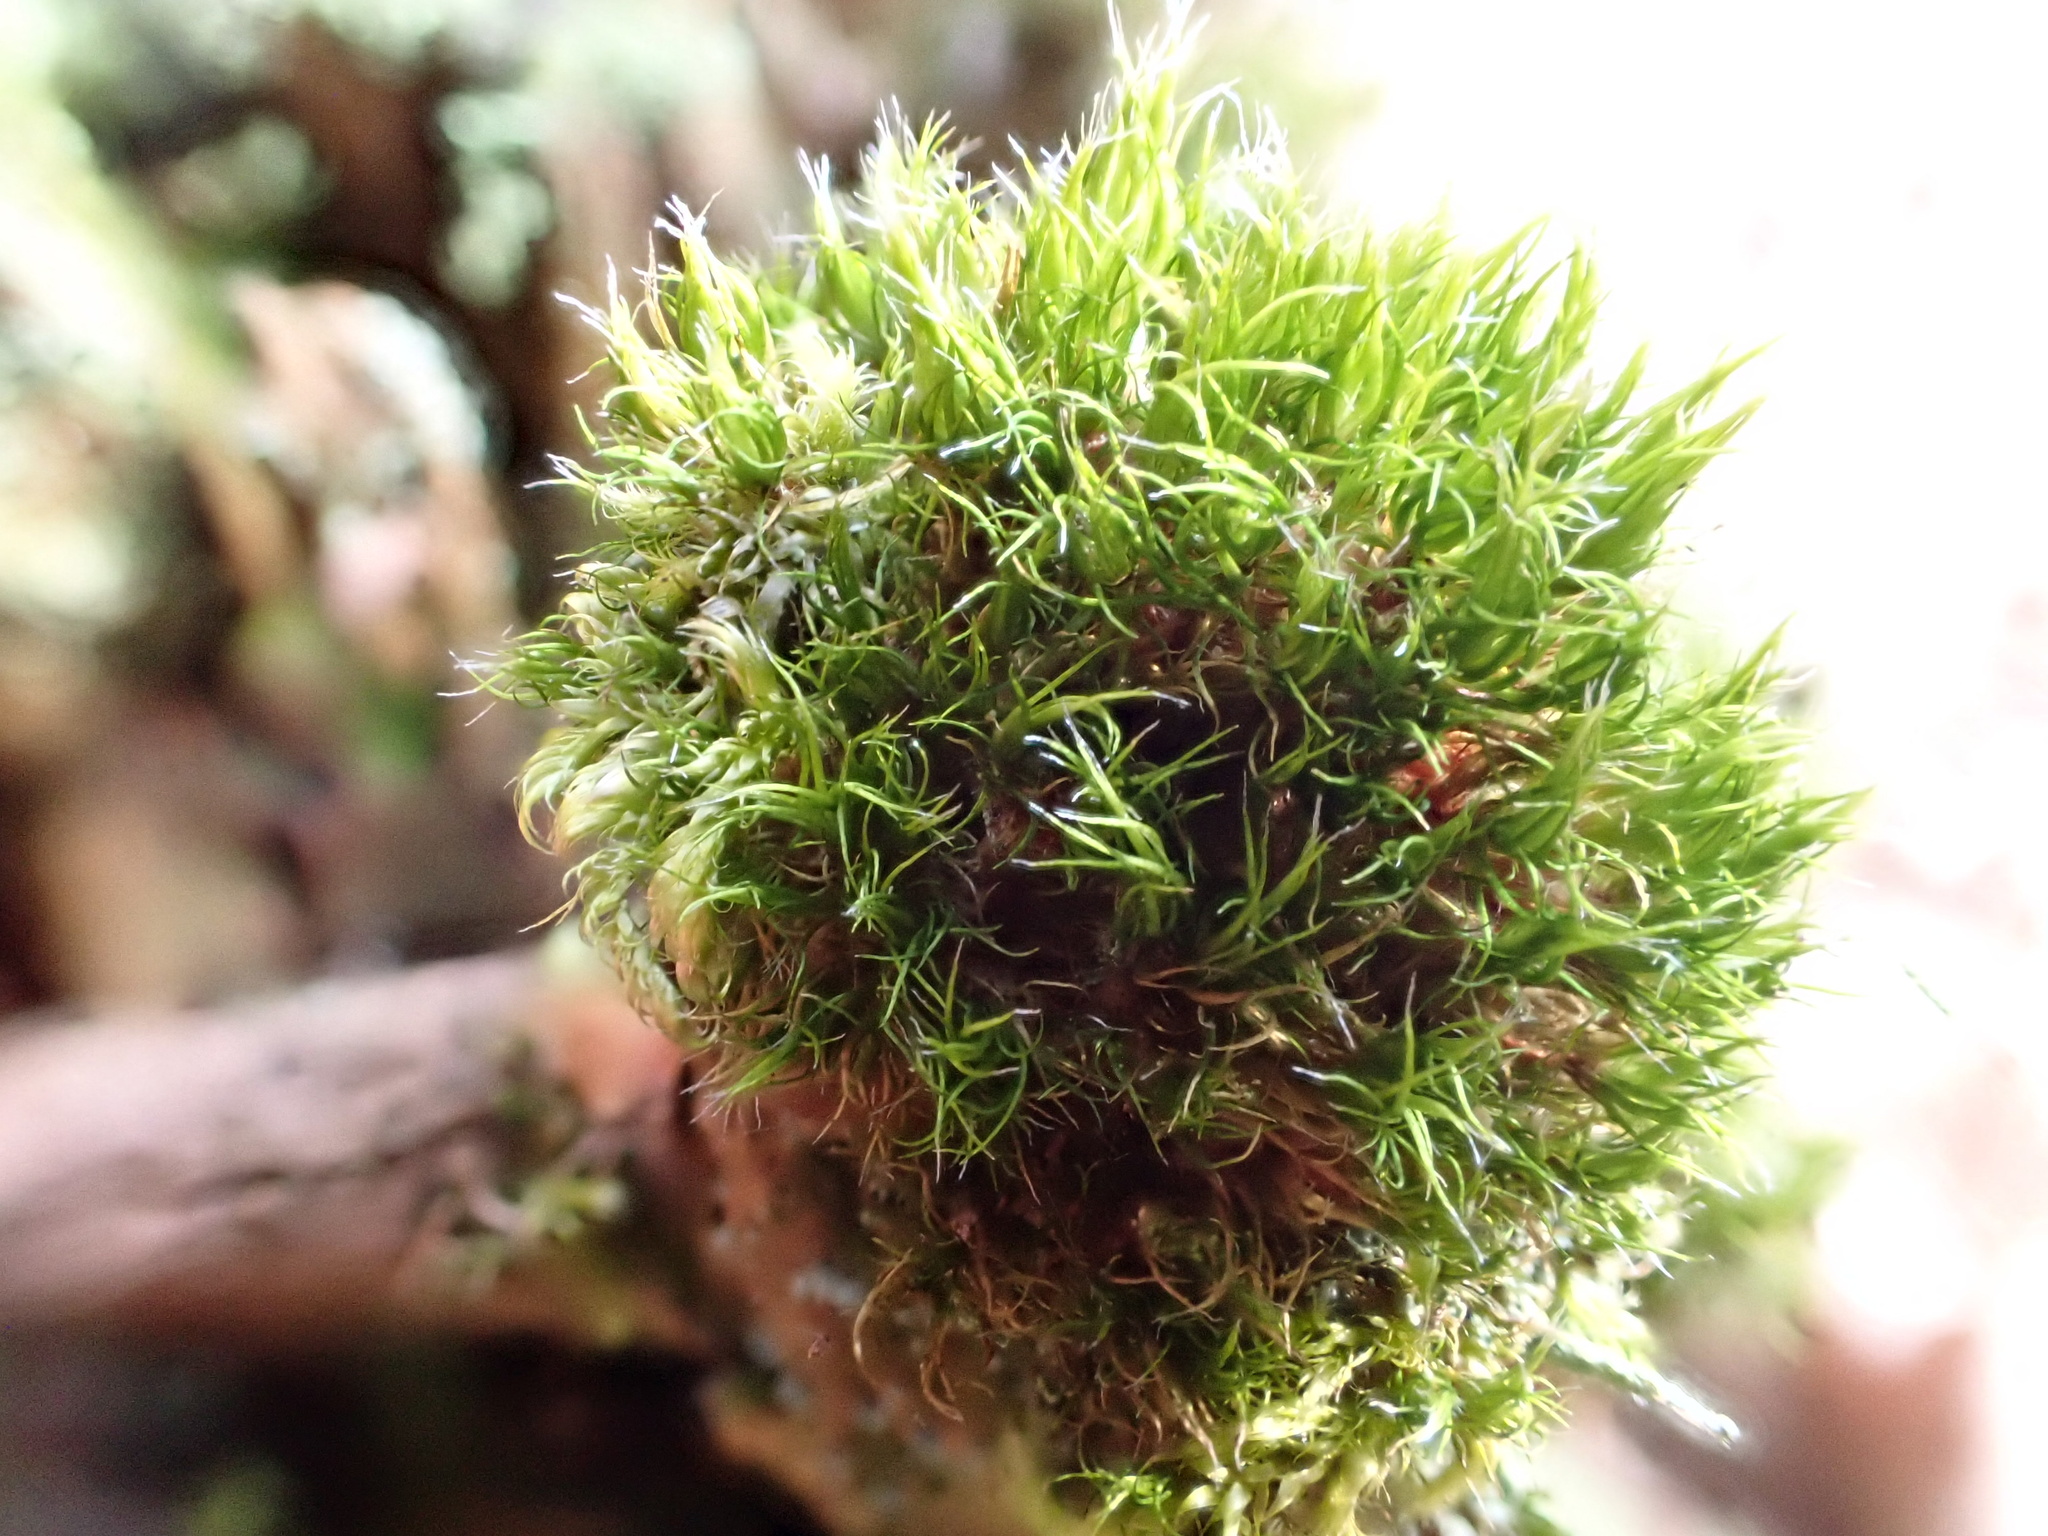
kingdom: Plantae
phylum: Bryophyta
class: Bryopsida
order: Dicranales
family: Dicranaceae
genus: Orthodicranum
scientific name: Orthodicranum montanum
